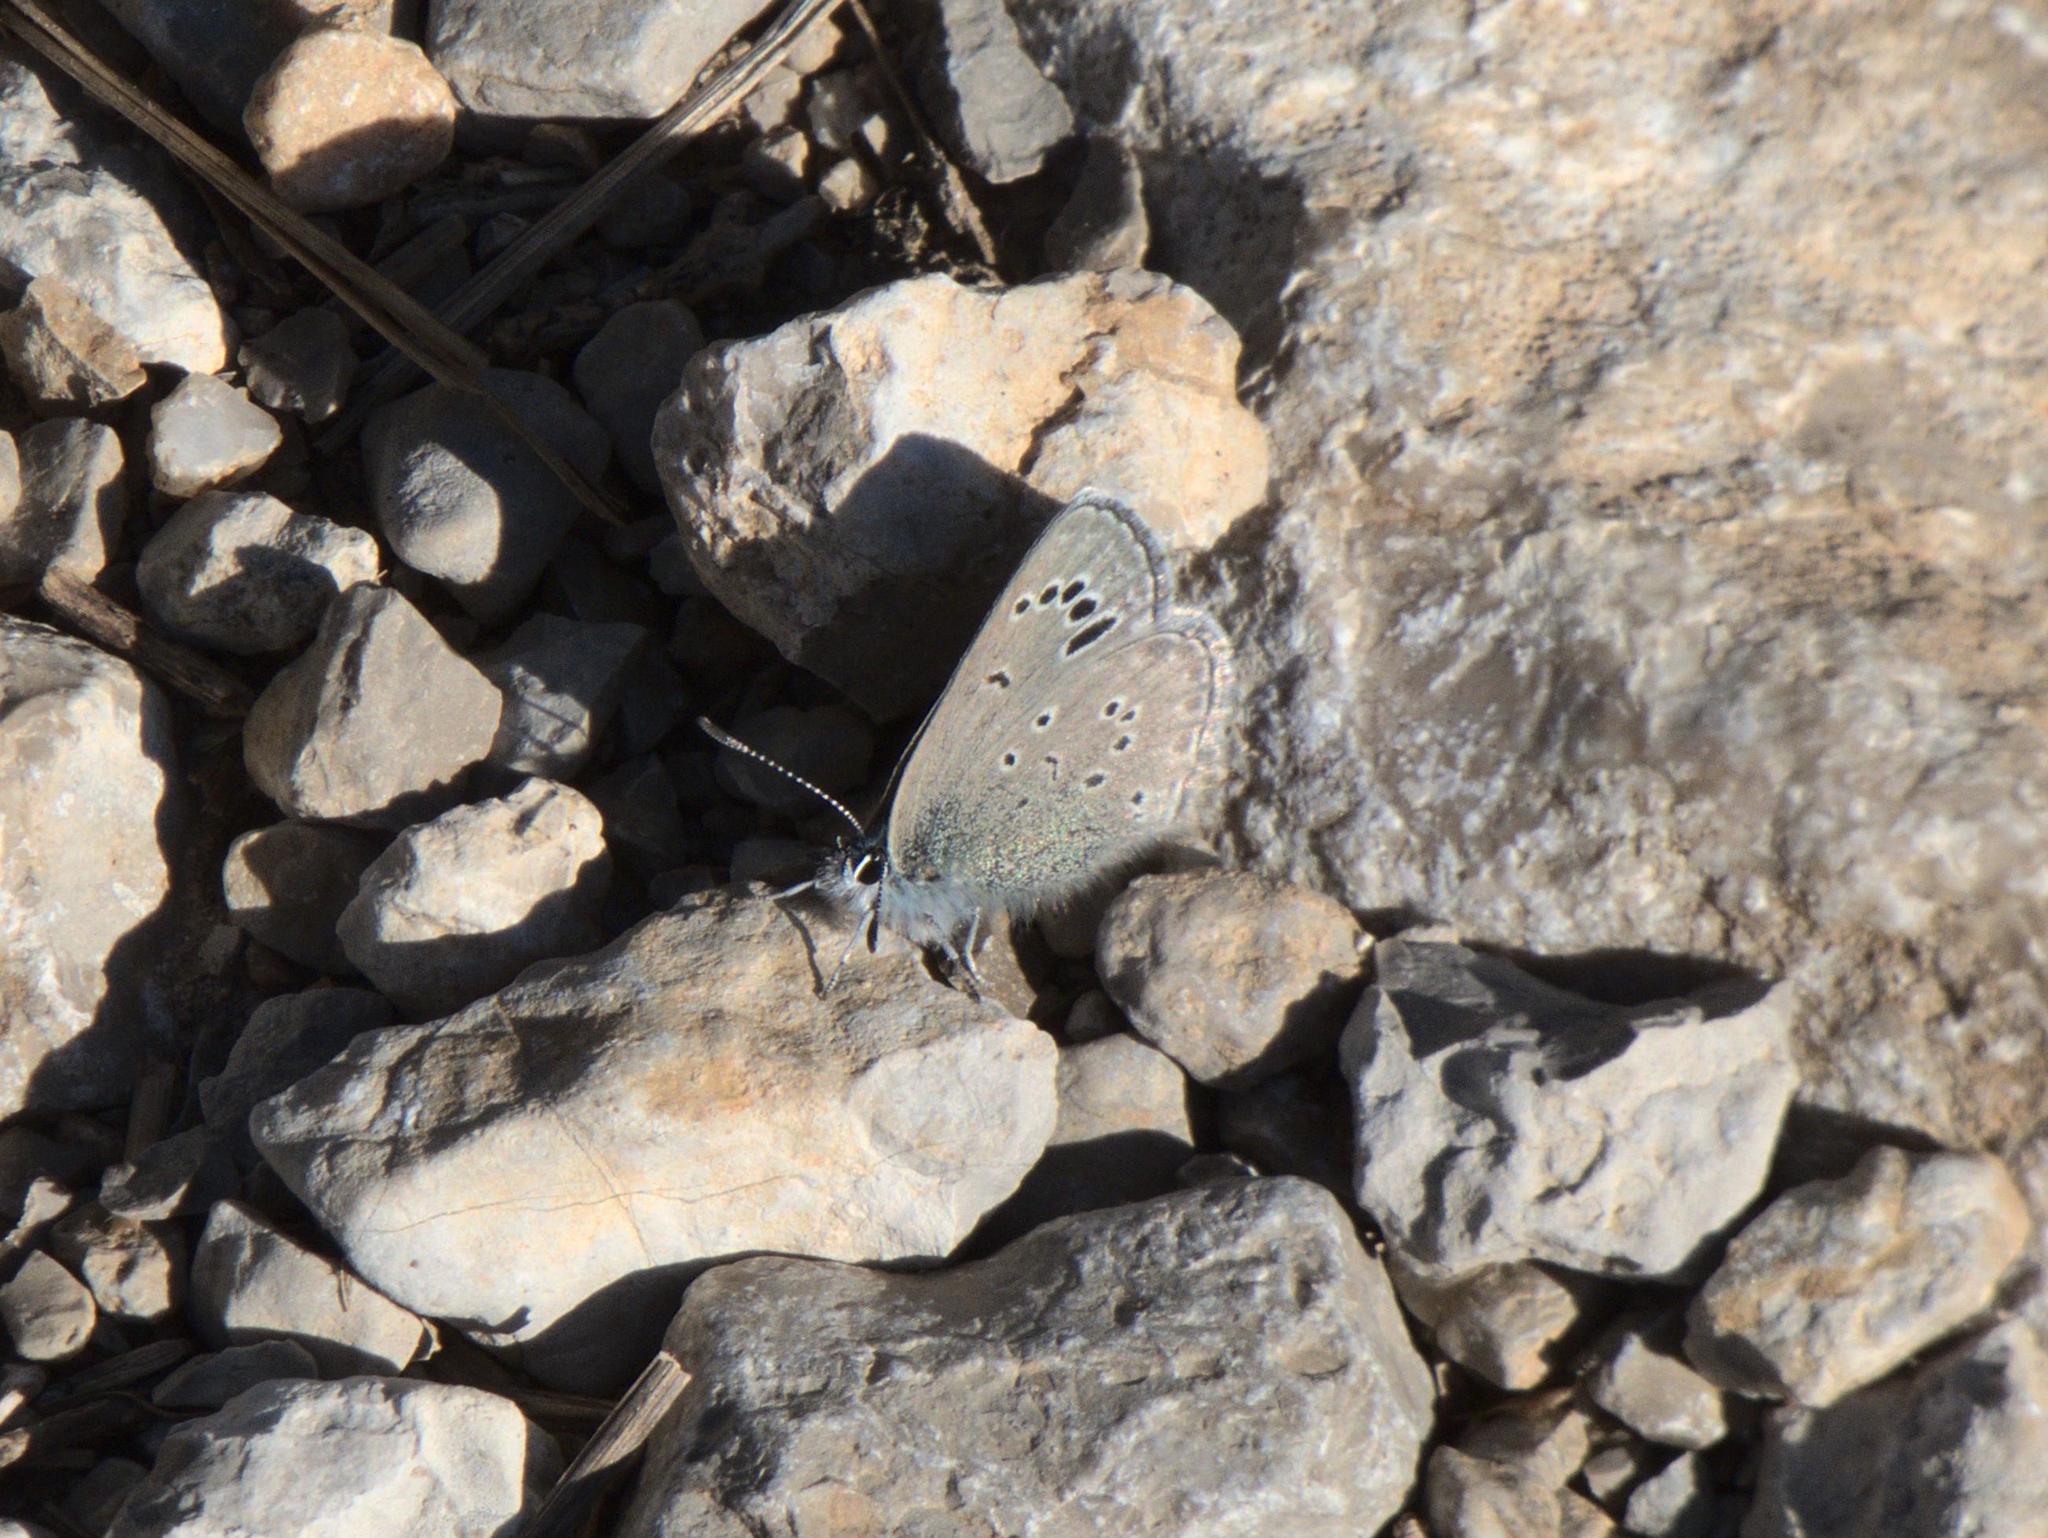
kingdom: Animalia
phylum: Arthropoda
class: Insecta
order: Lepidoptera
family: Lycaenidae
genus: Glaucopsyche
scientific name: Glaucopsyche melanops
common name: Black-eyed blue
